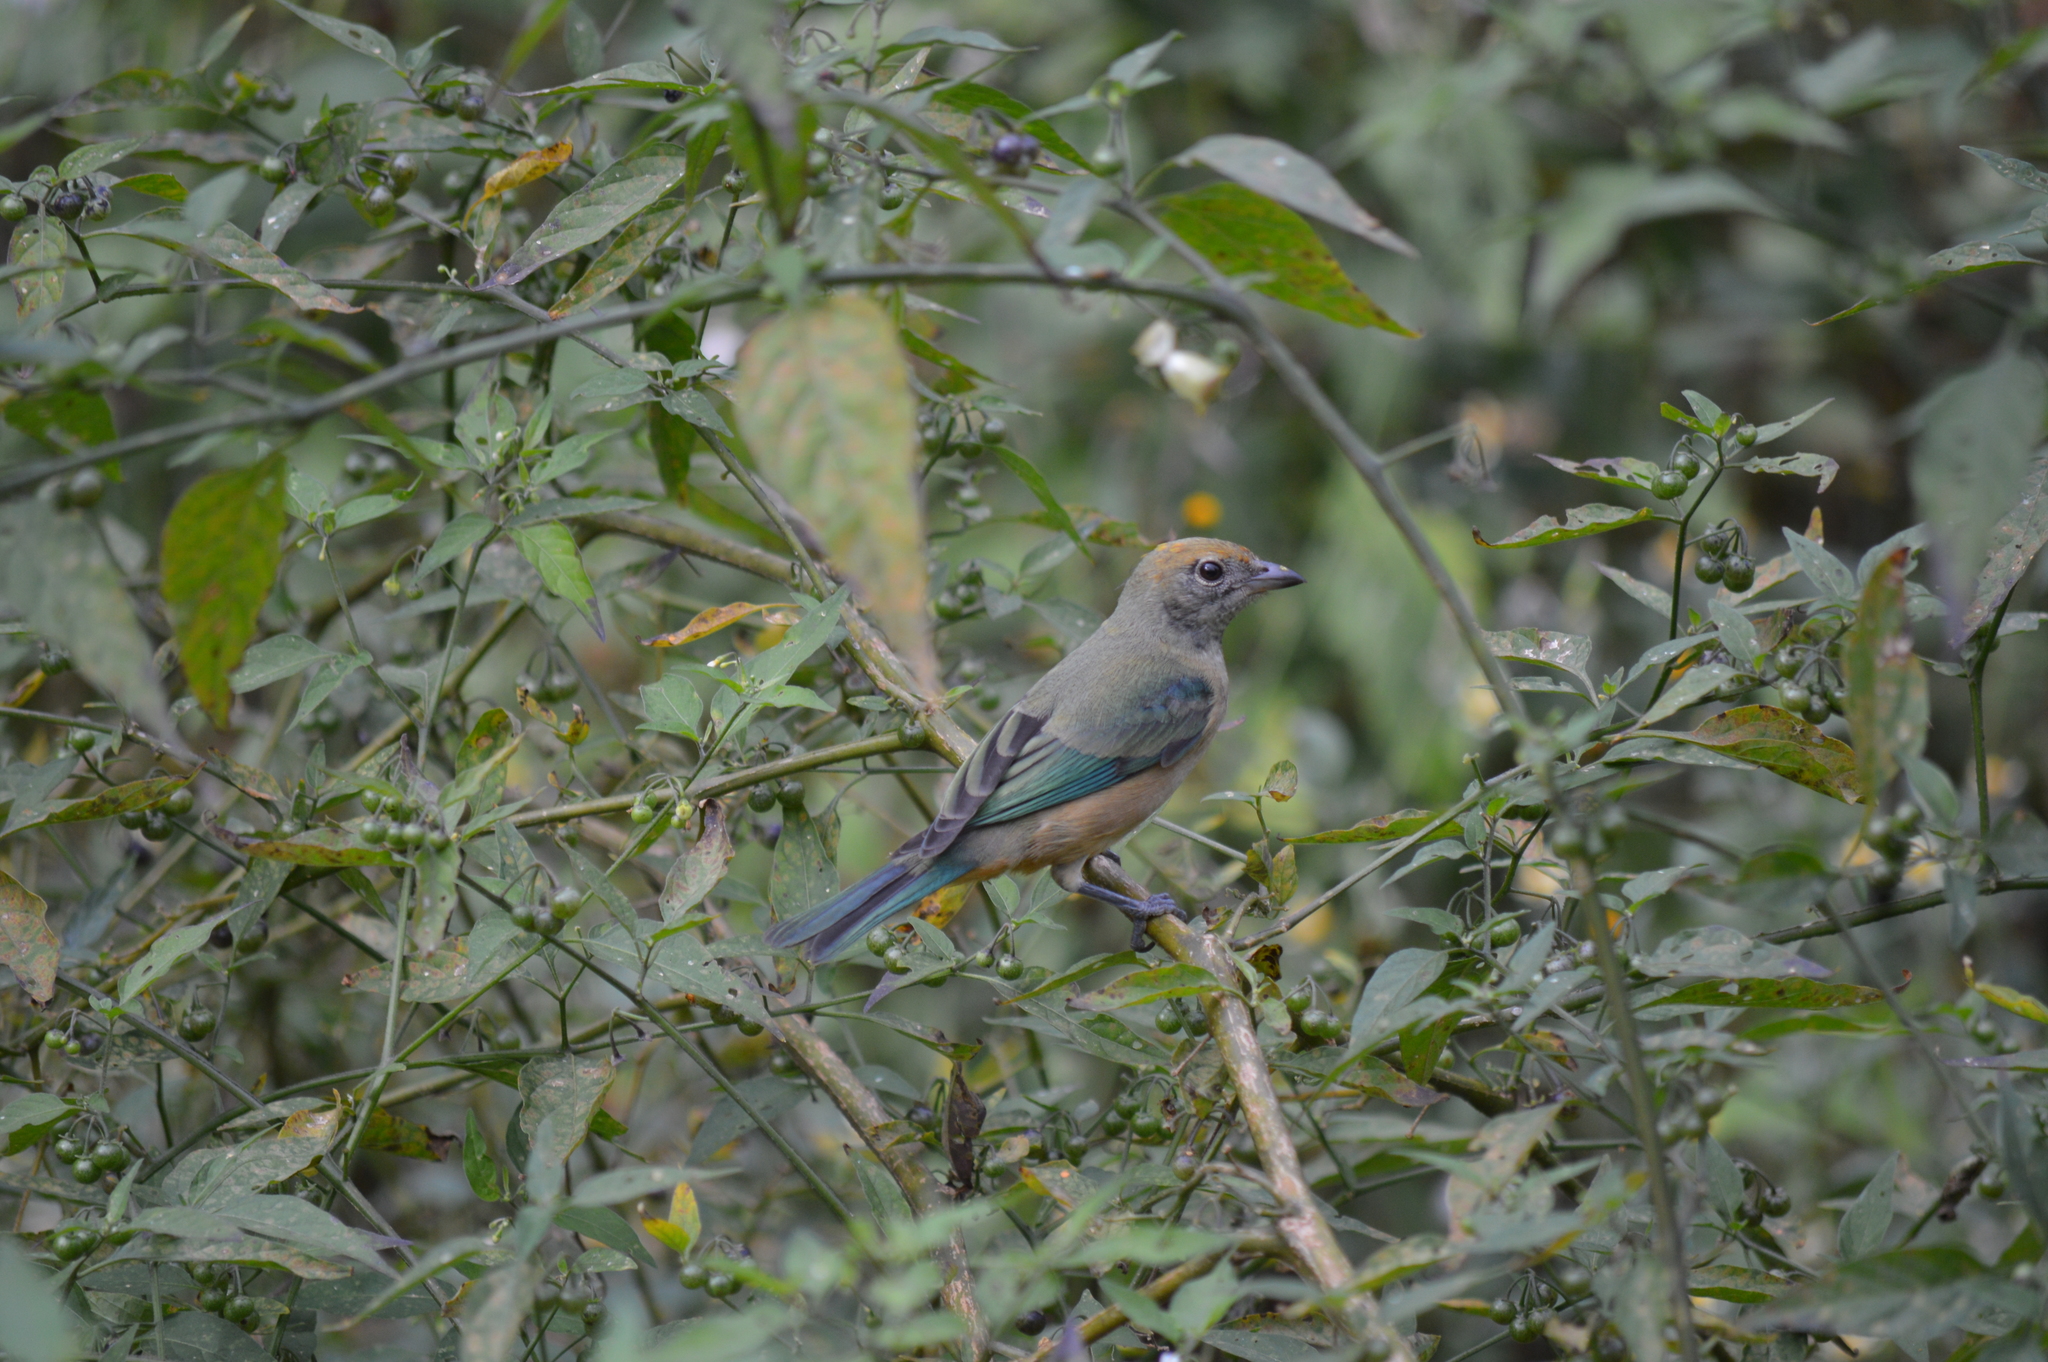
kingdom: Animalia
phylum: Chordata
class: Aves
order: Passeriformes
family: Thraupidae
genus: Stilpnia
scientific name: Stilpnia cayana
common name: Burnished-buff tanager
